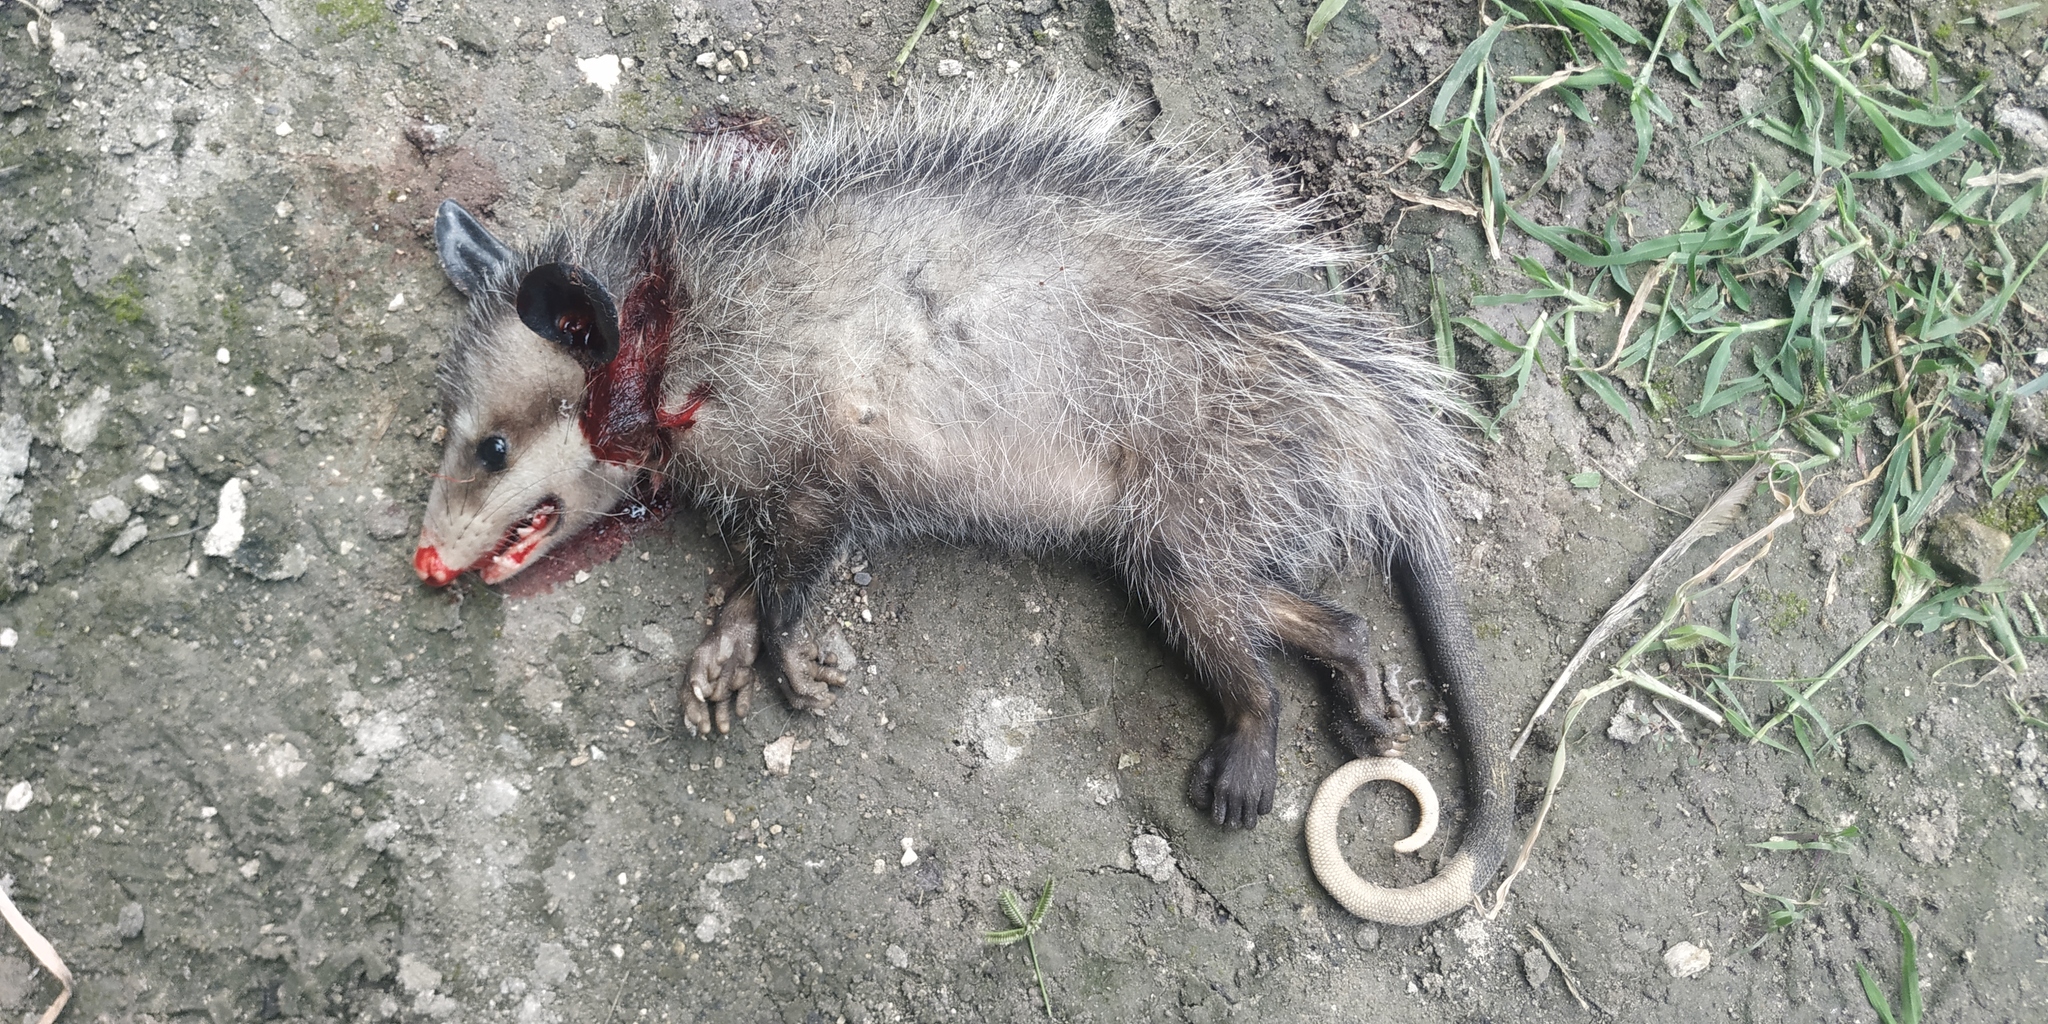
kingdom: Animalia
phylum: Chordata
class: Mammalia
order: Didelphimorphia
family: Didelphidae
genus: Didelphis
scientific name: Didelphis virginiana
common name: Virginia opossum
